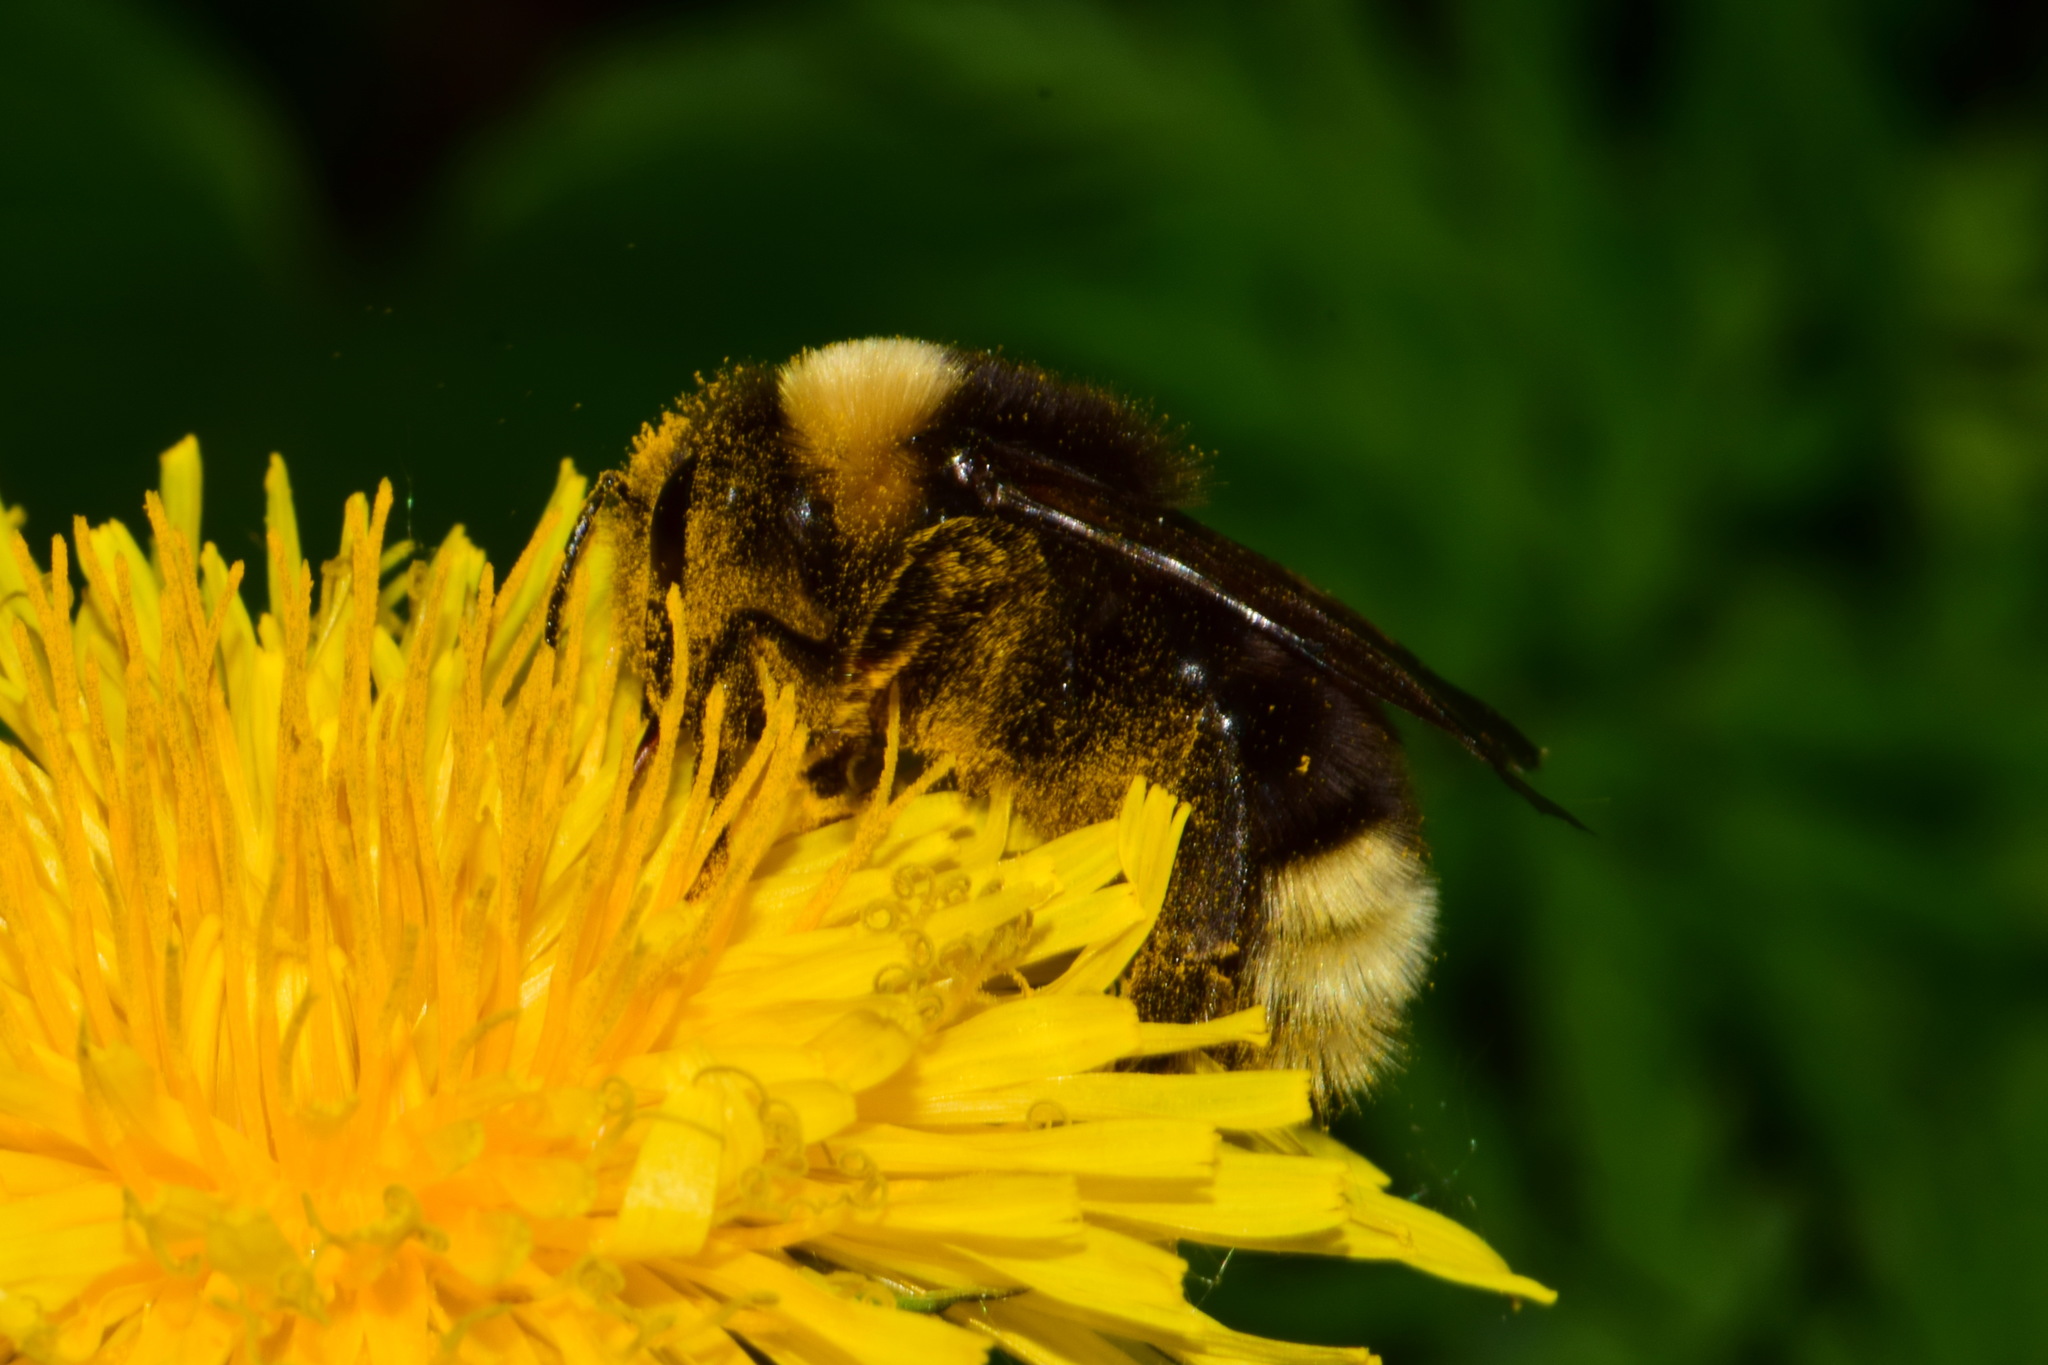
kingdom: Animalia
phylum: Arthropoda
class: Insecta
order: Hymenoptera
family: Apidae
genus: Bombus
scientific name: Bombus bohemicus
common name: Gypsy cuckoo bee
